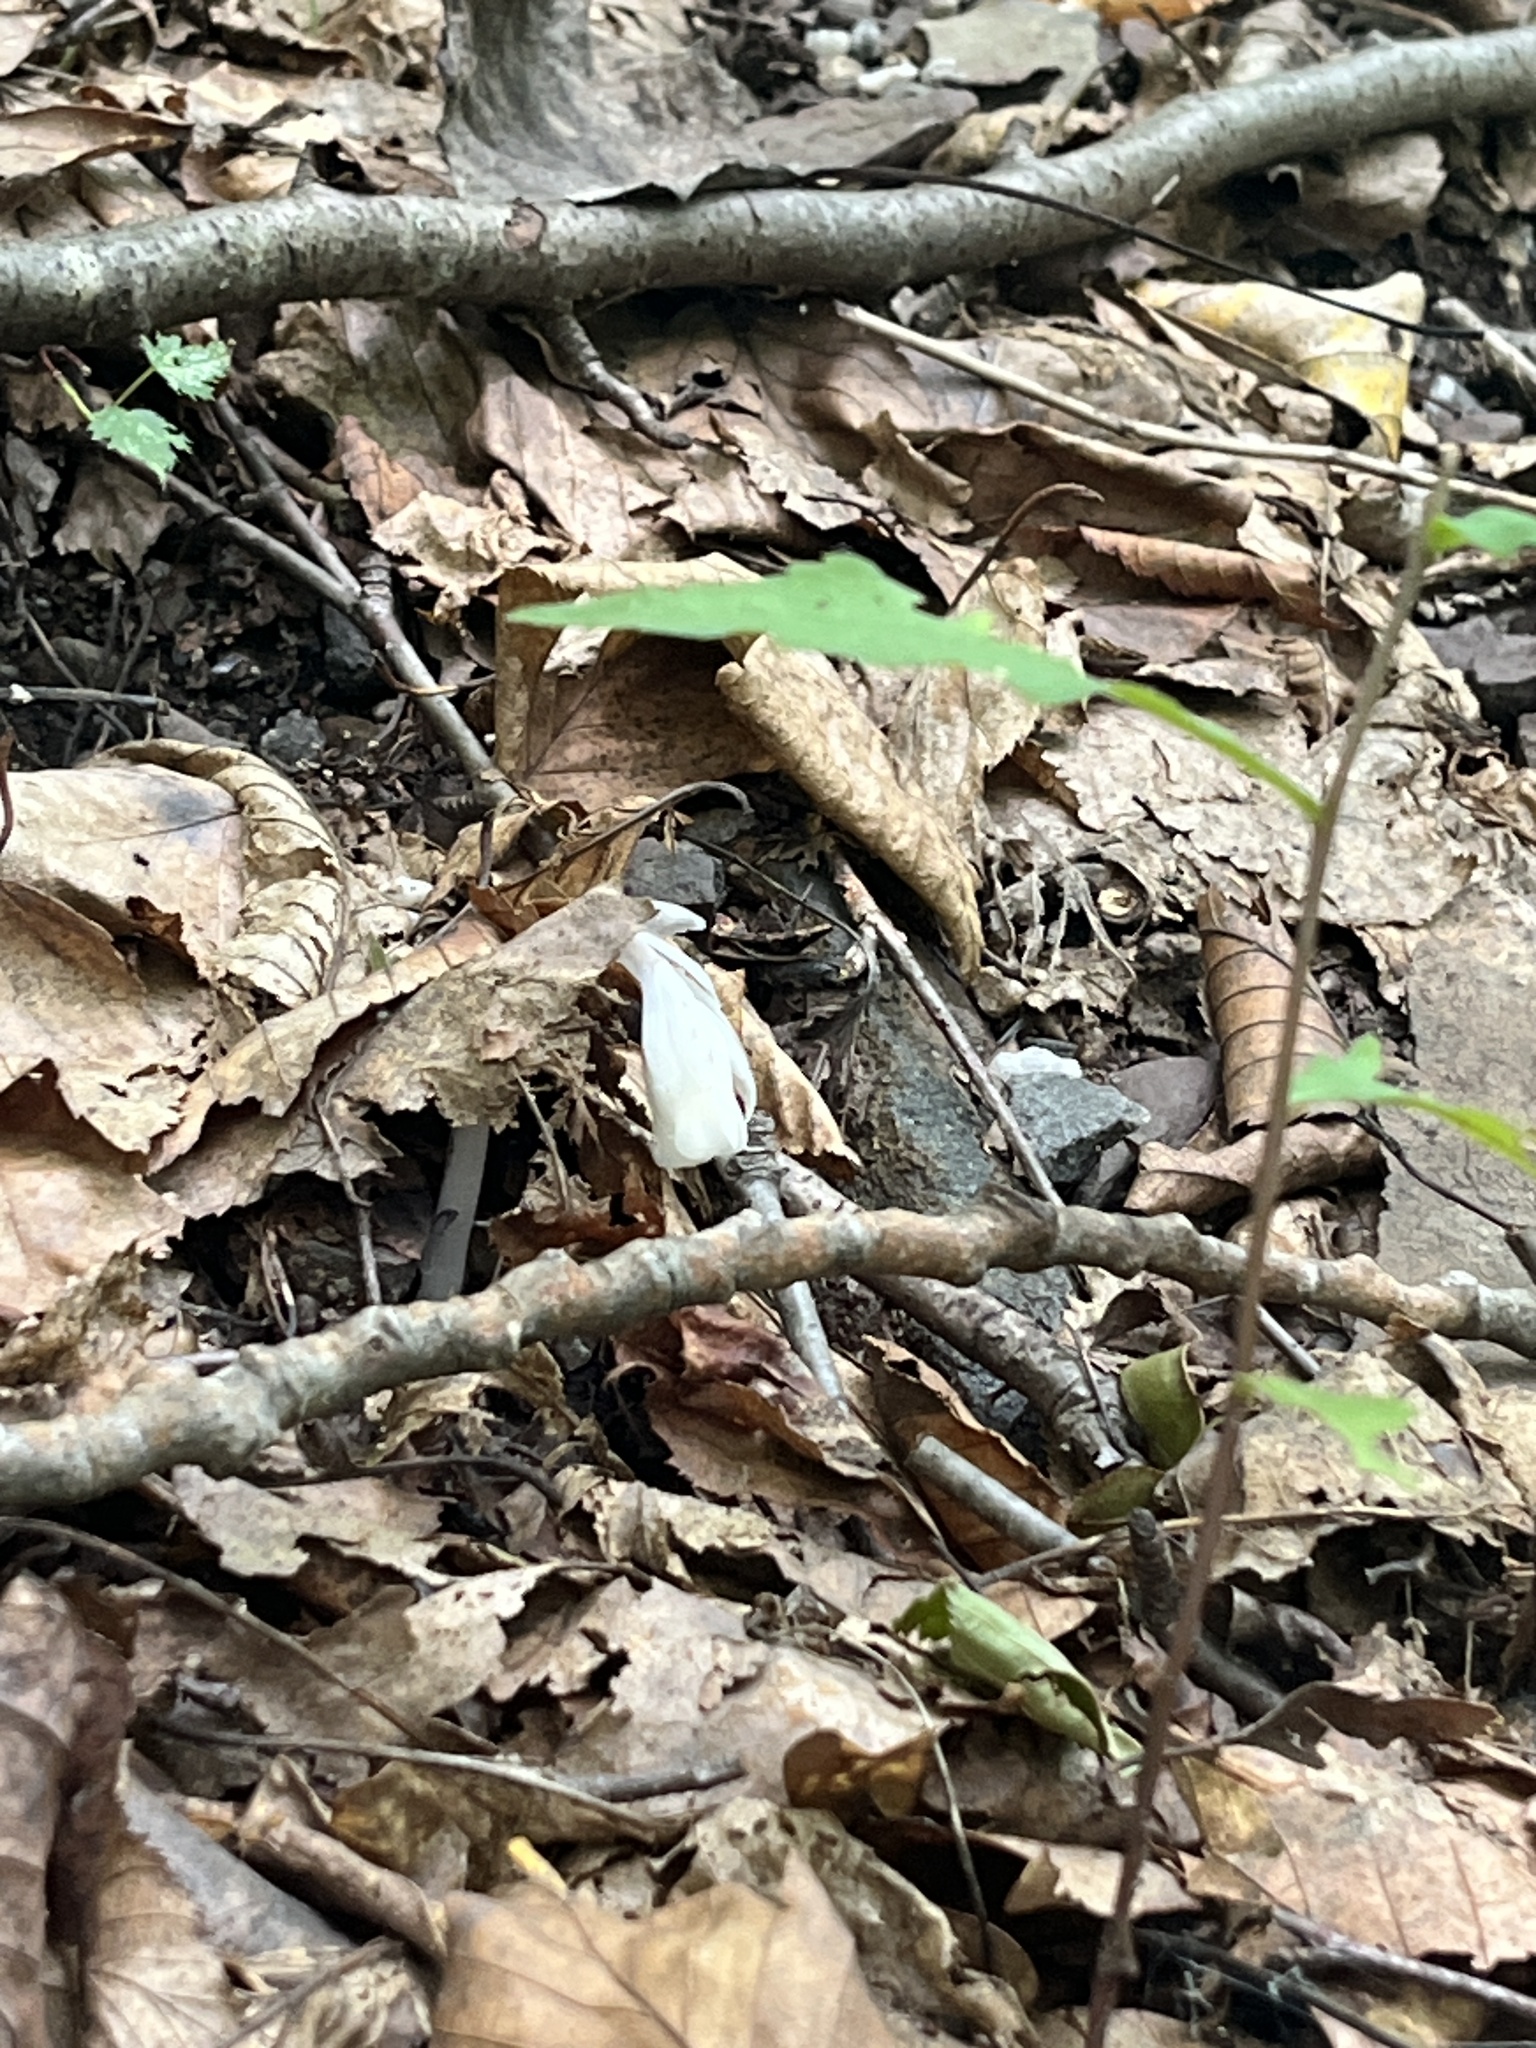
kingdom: Plantae
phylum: Tracheophyta
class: Magnoliopsida
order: Ericales
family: Ericaceae
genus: Monotropa
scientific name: Monotropa uniflora
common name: Convulsion root
